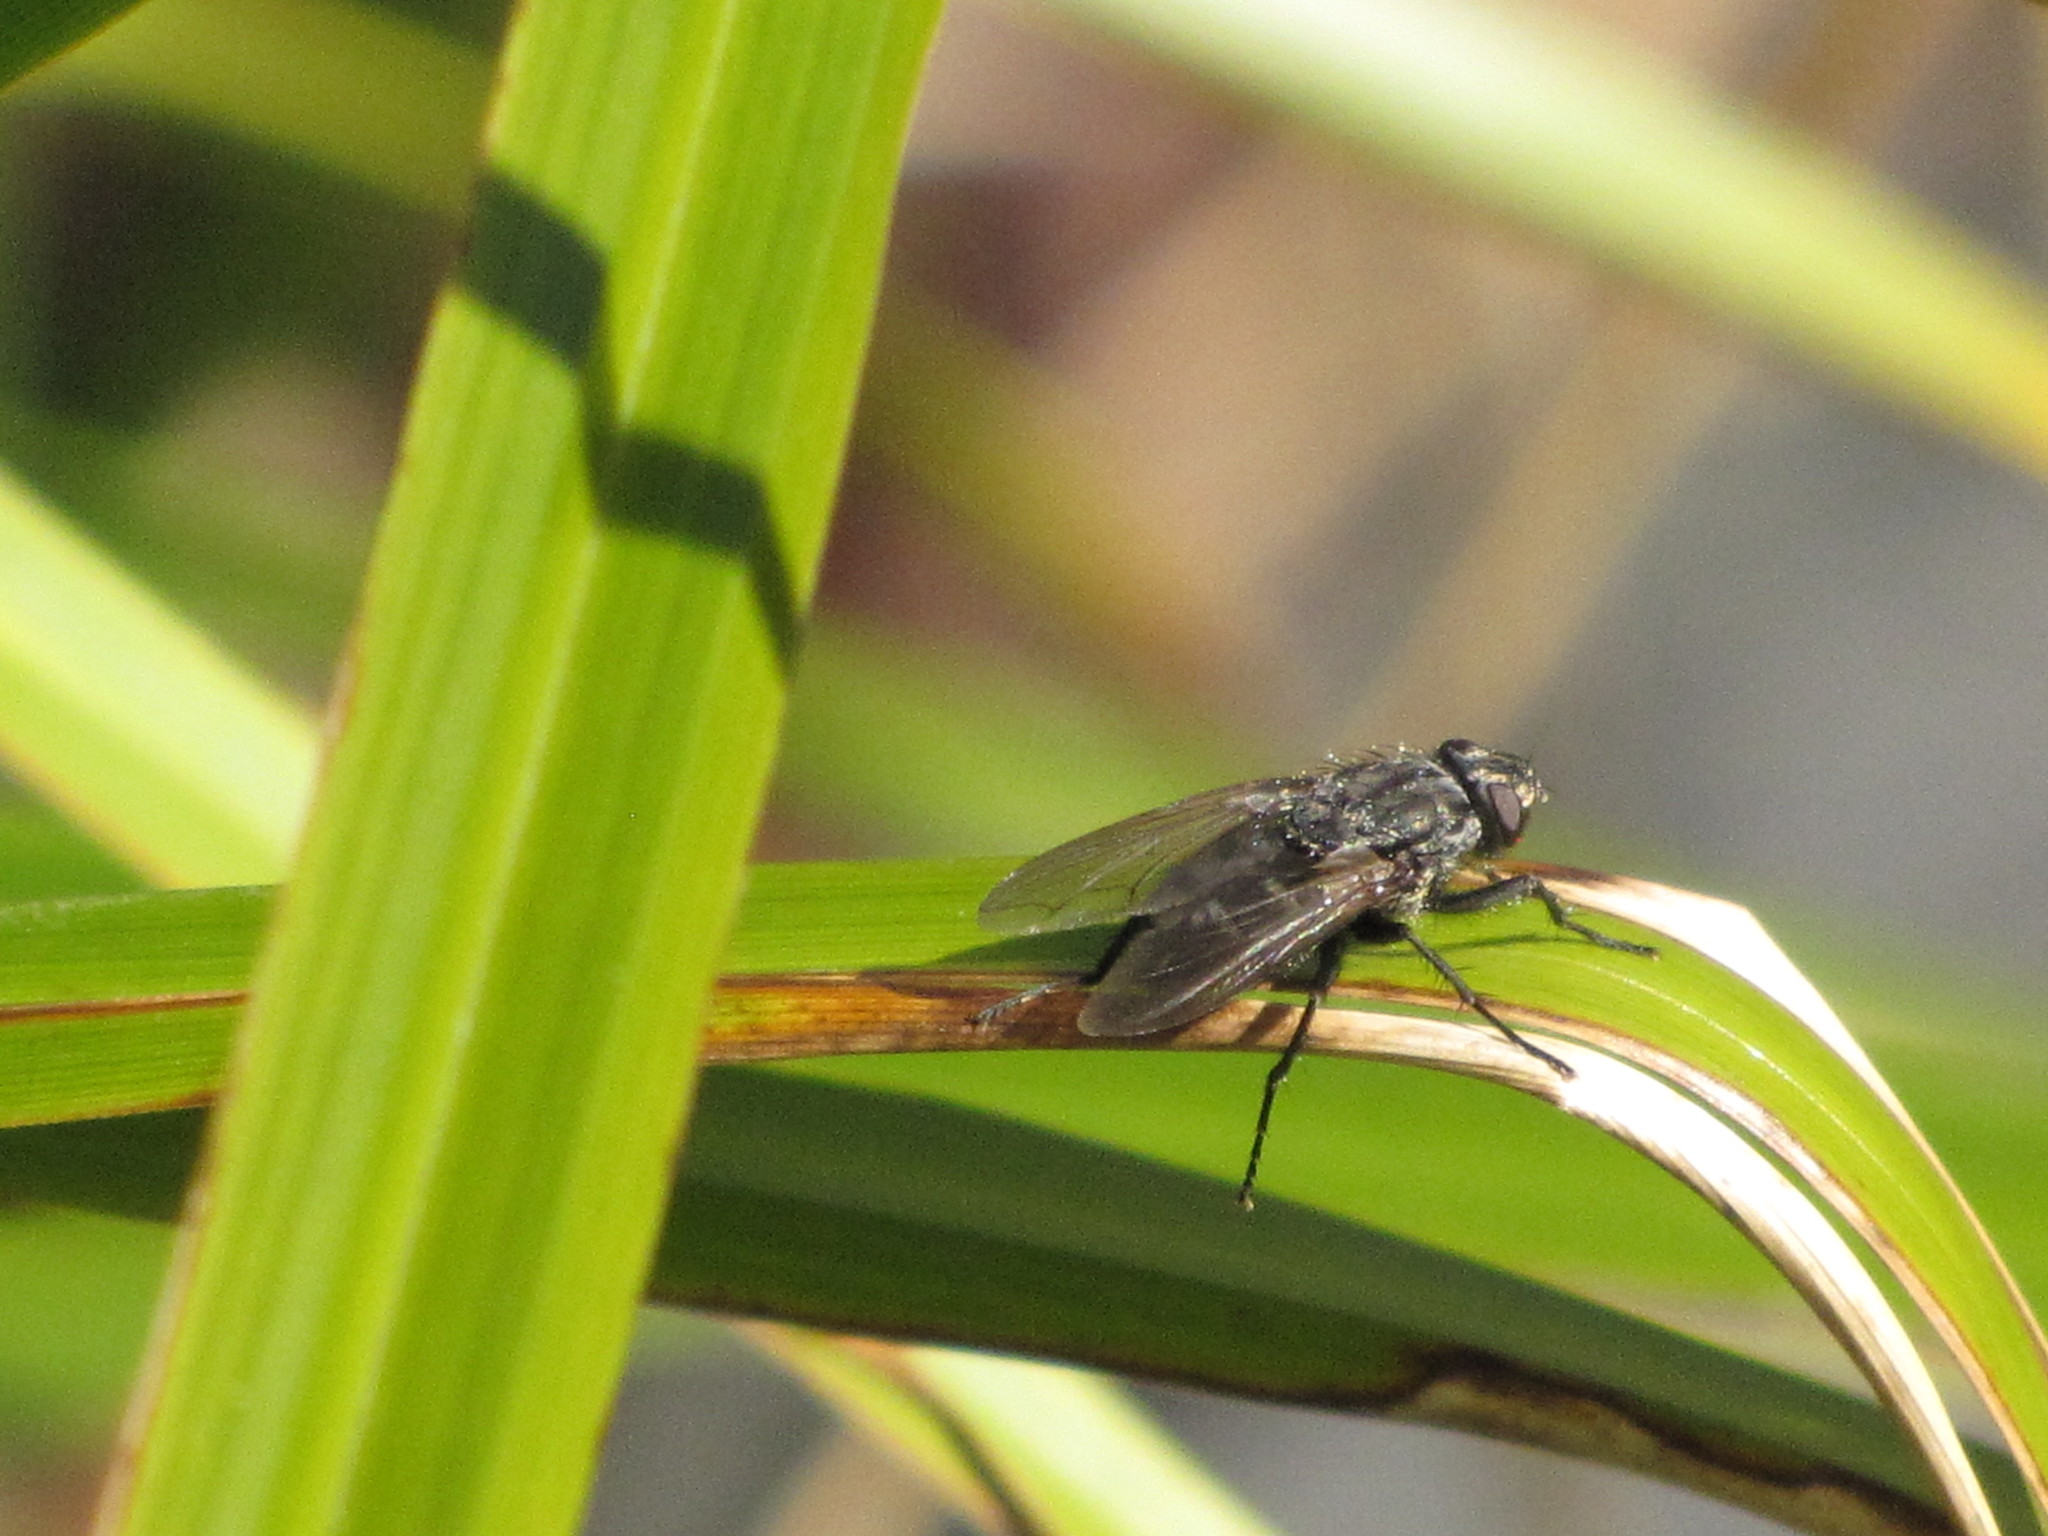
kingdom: Animalia
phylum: Arthropoda
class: Insecta
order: Diptera
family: Polleniidae
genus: Pollenia
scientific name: Pollenia vagabunda
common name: Vagabund cluster fly
